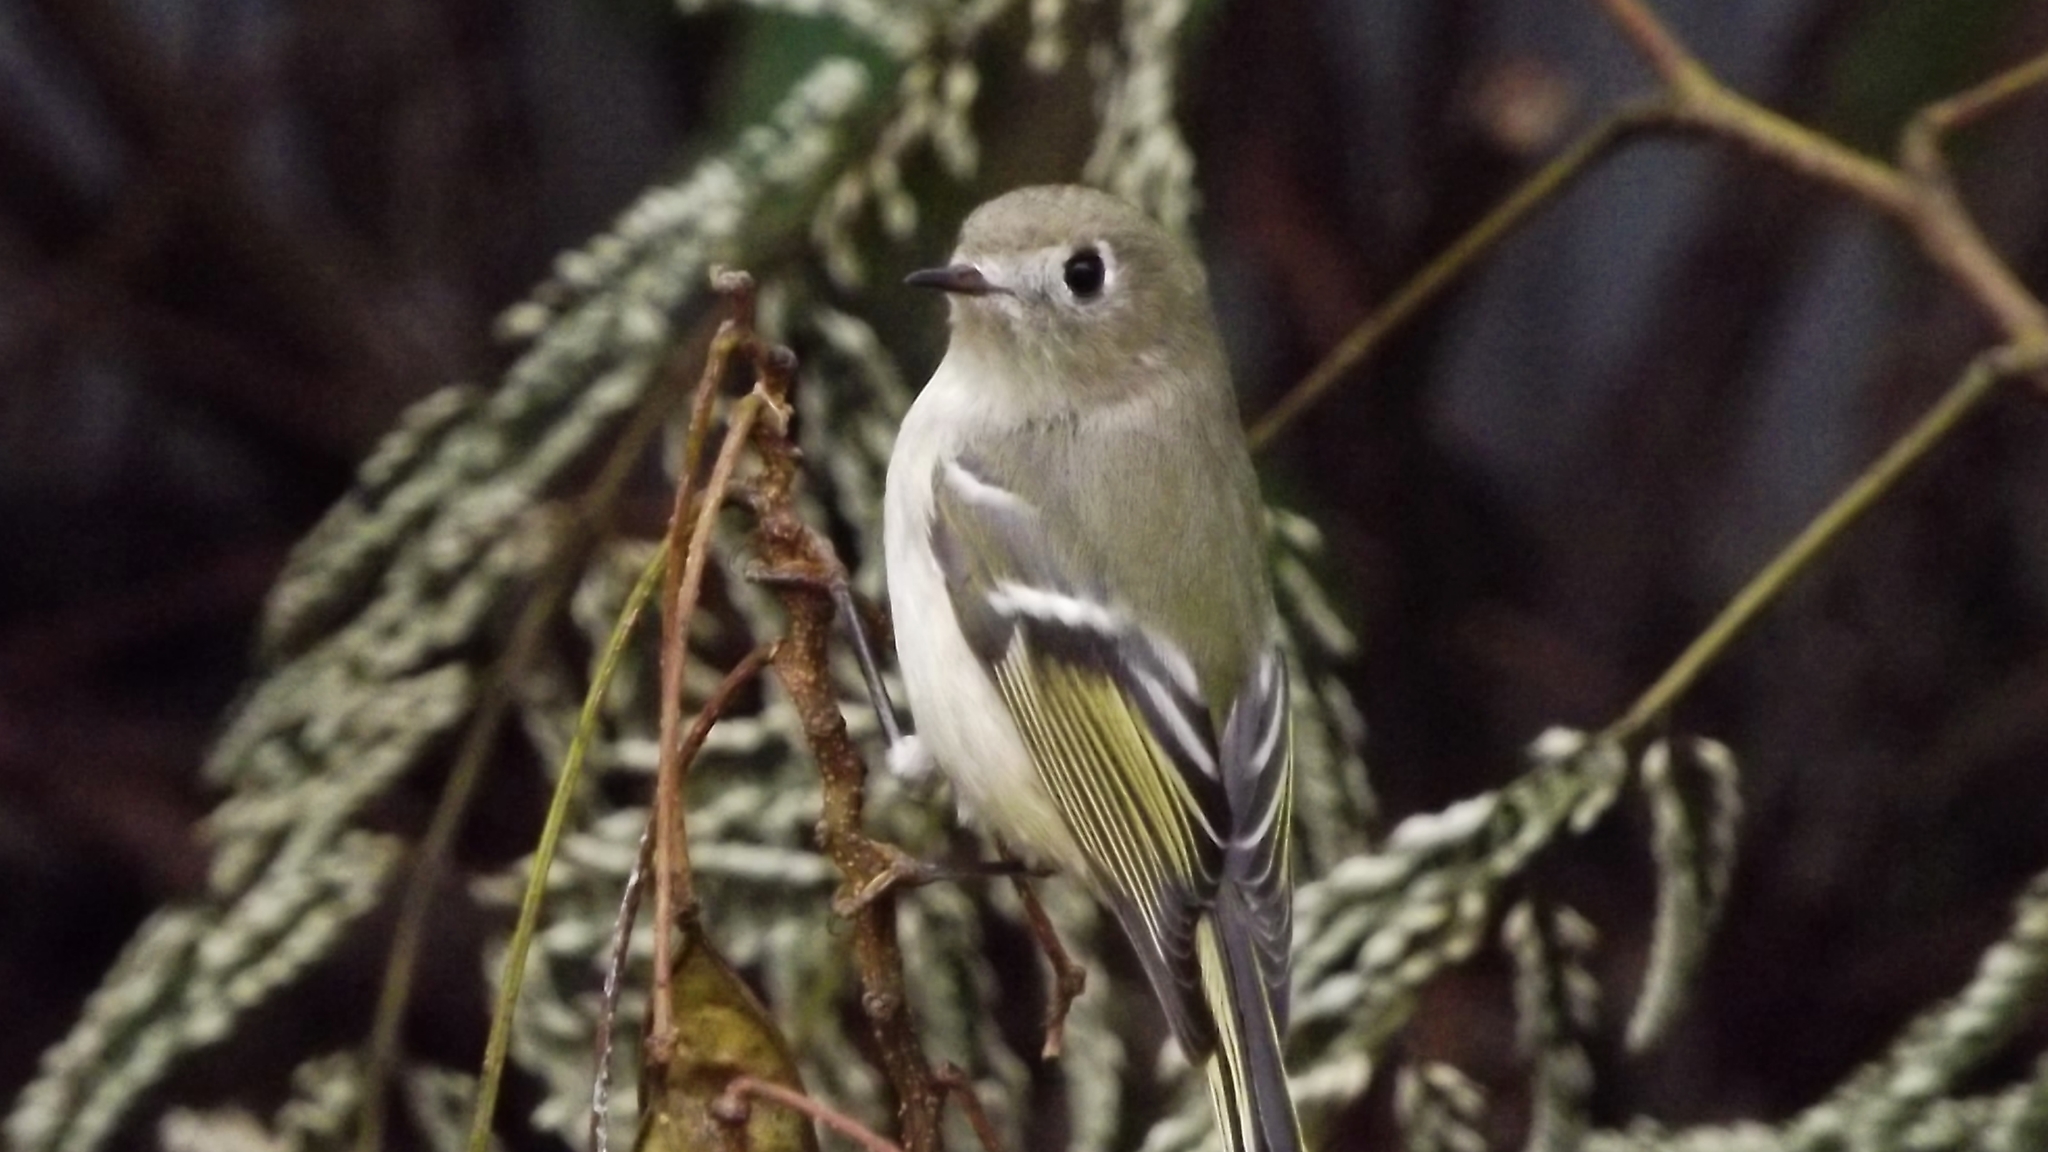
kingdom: Animalia
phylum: Chordata
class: Aves
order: Passeriformes
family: Regulidae
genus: Regulus
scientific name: Regulus calendula
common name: Ruby-crowned kinglet
